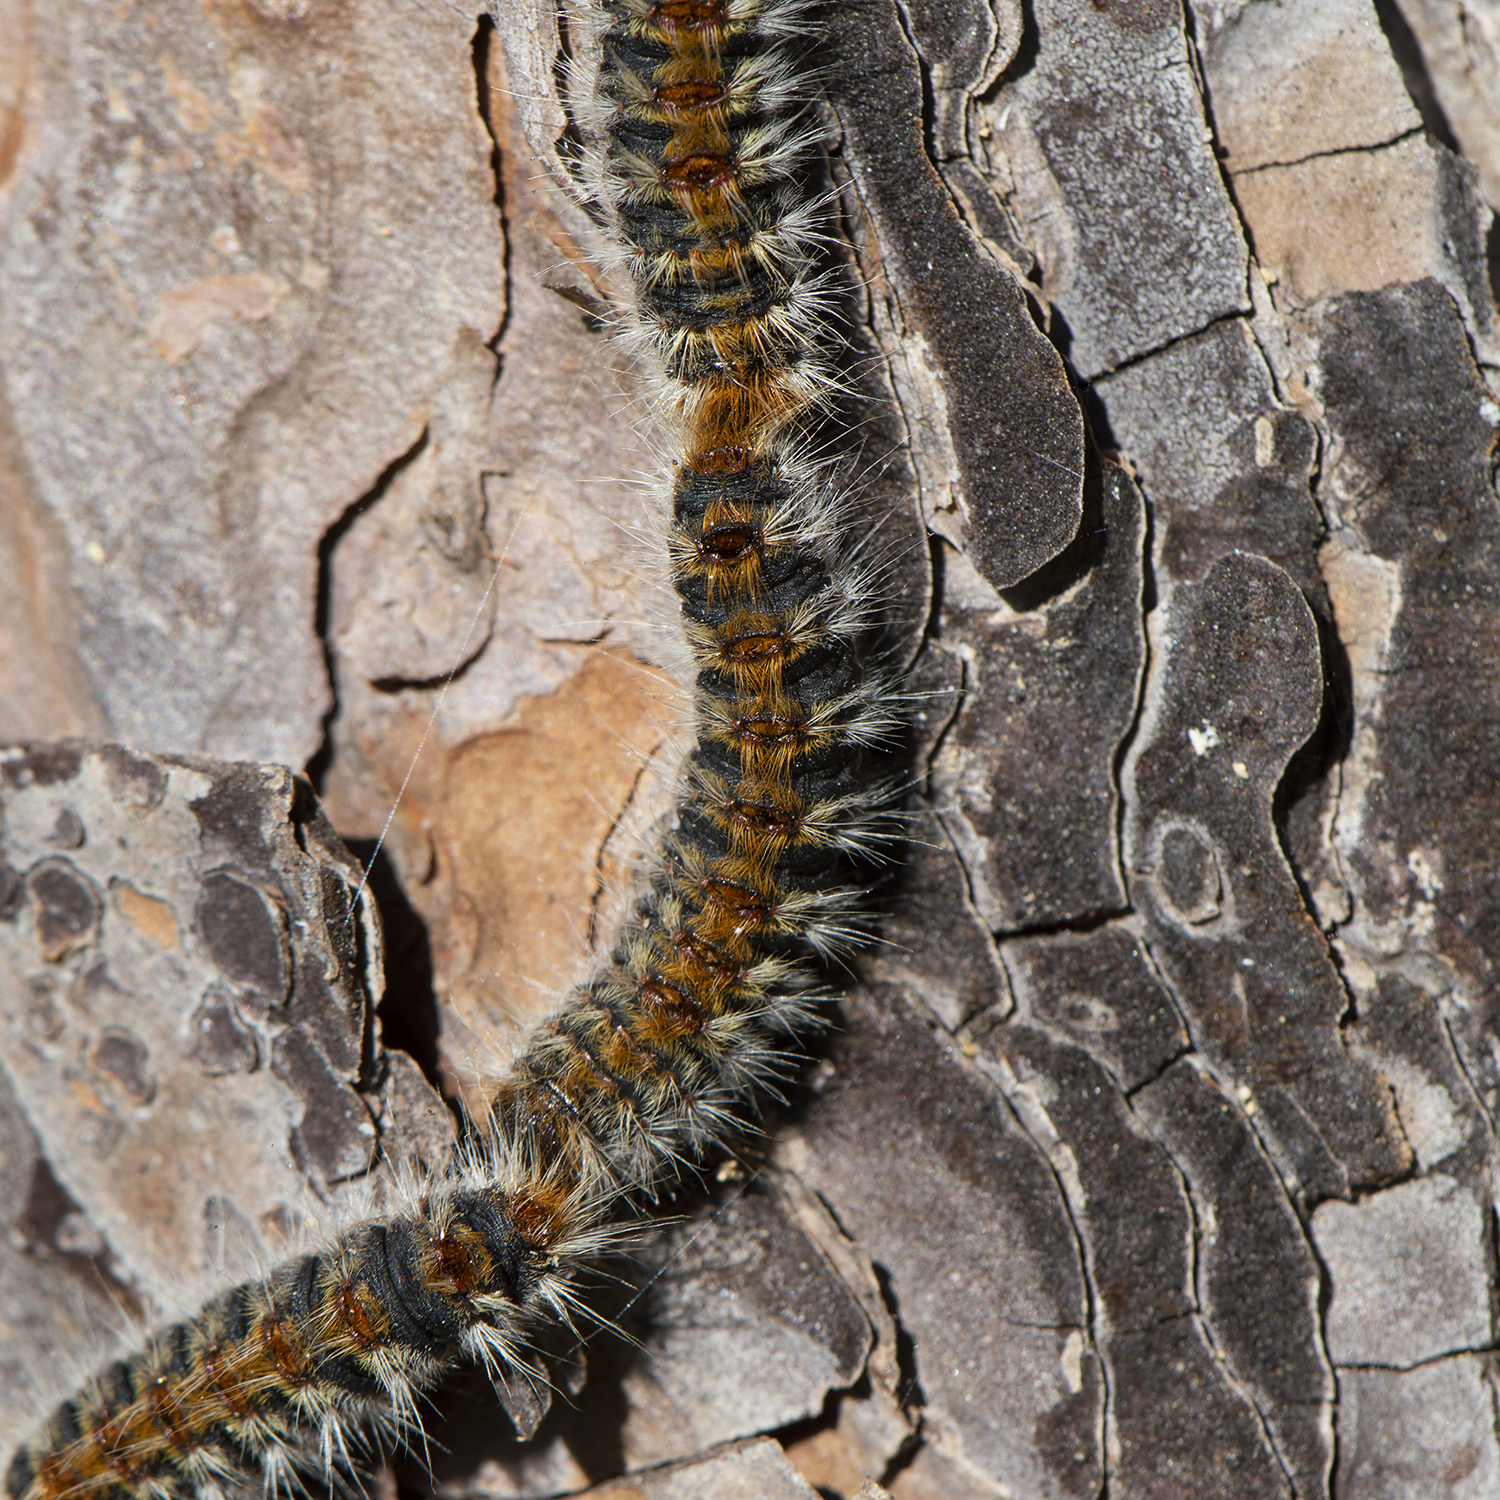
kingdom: Animalia
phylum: Arthropoda
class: Insecta
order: Lepidoptera
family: Notodontidae
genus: Thaumetopoea
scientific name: Thaumetopoea pityocampa
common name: Pine processionary
